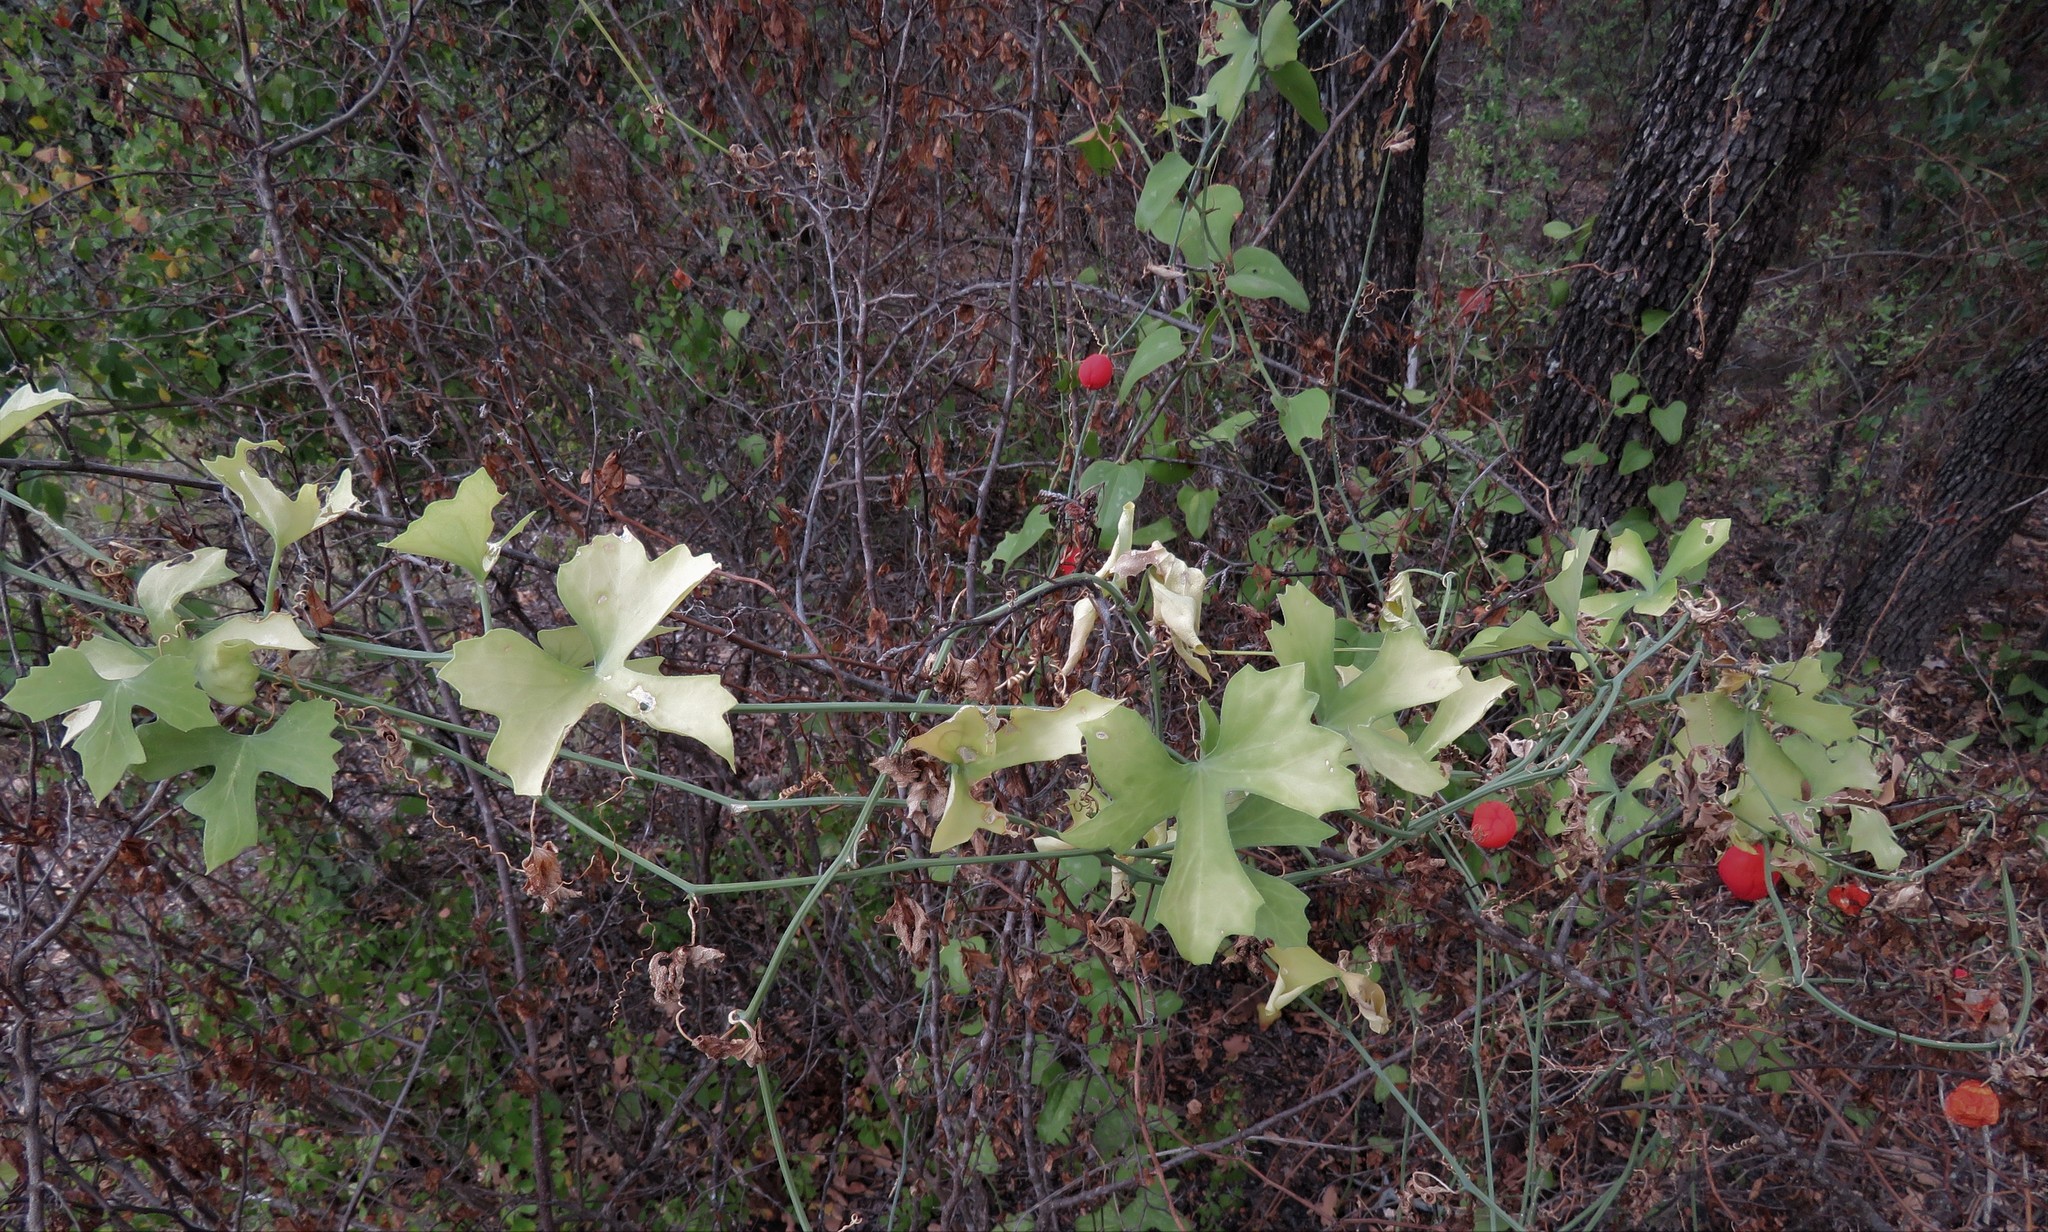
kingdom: Plantae
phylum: Tracheophyta
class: Magnoliopsida
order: Cucurbitales
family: Cucurbitaceae
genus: Ibervillea
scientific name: Ibervillea lindheimeri
